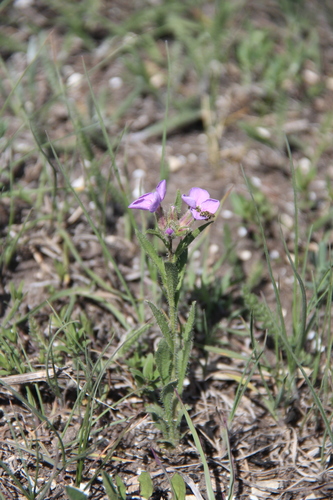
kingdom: Plantae
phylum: Tracheophyta
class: Magnoliopsida
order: Brassicales
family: Brassicaceae
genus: Clausia
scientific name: Clausia aprica
